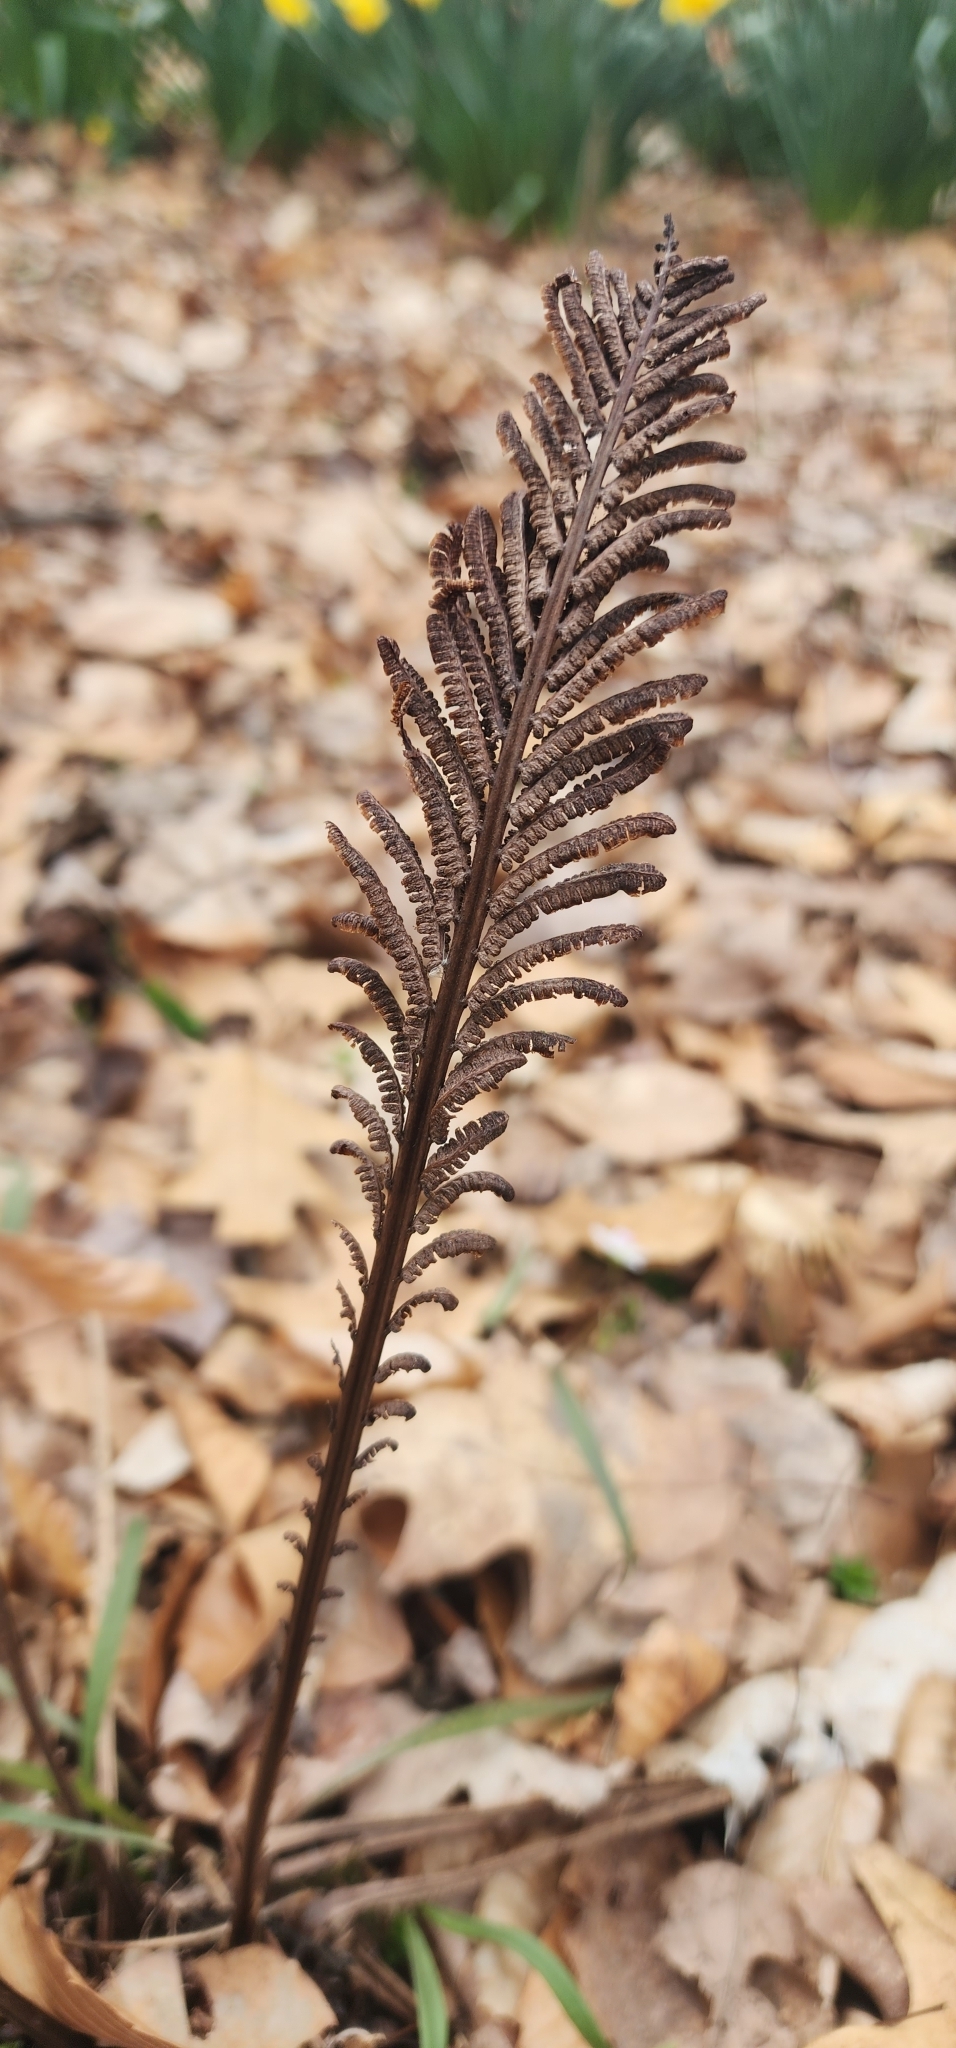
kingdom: Plantae
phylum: Tracheophyta
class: Polypodiopsida
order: Polypodiales
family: Onocleaceae
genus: Matteuccia
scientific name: Matteuccia struthiopteris
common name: Ostrich fern
